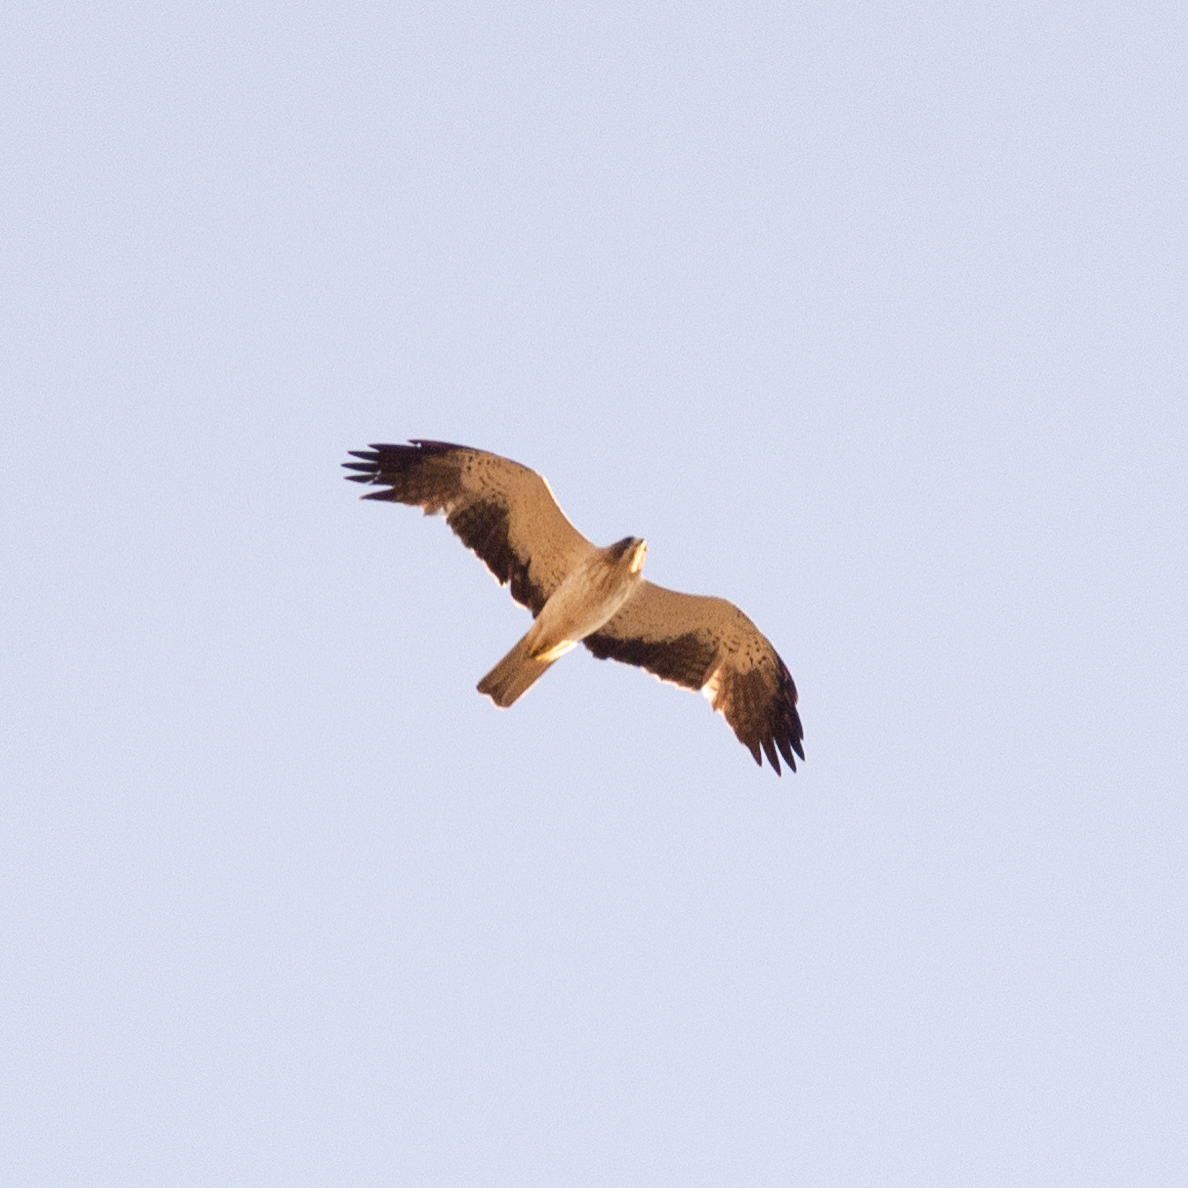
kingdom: Animalia
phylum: Chordata
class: Aves
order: Accipitriformes
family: Accipitridae
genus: Hieraaetus
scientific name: Hieraaetus pennatus
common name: Booted eagle
